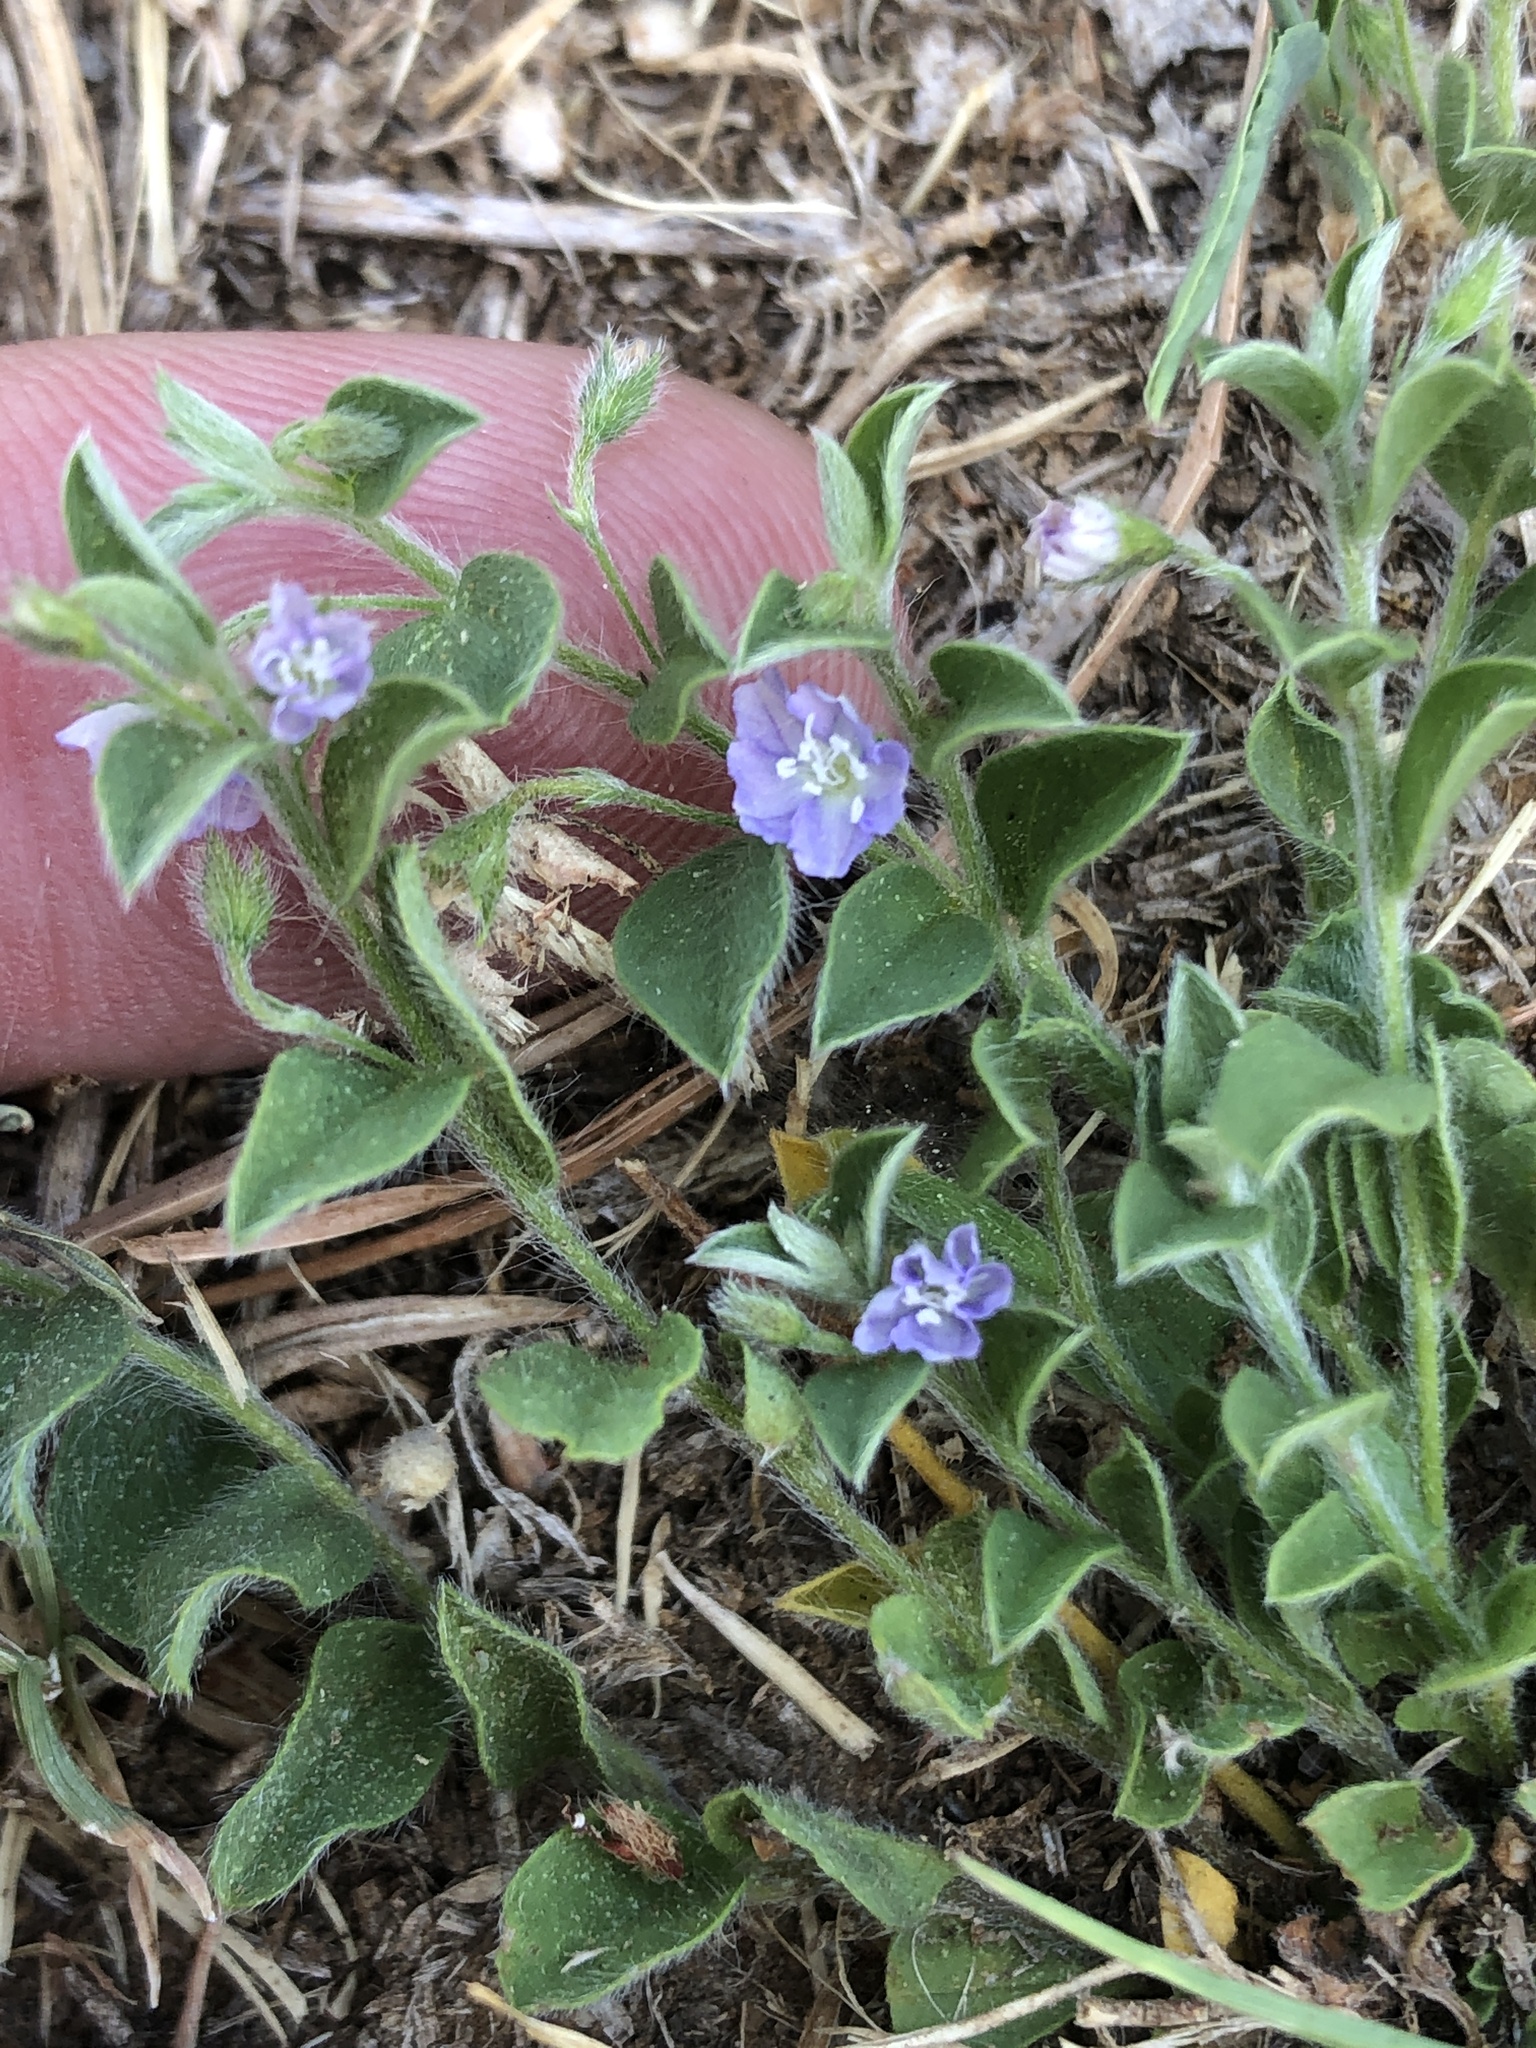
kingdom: Plantae
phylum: Tracheophyta
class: Magnoliopsida
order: Solanales
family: Convolvulaceae
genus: Evolvulus
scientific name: Evolvulus alsinoides
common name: Slender dwarf morning-glory
